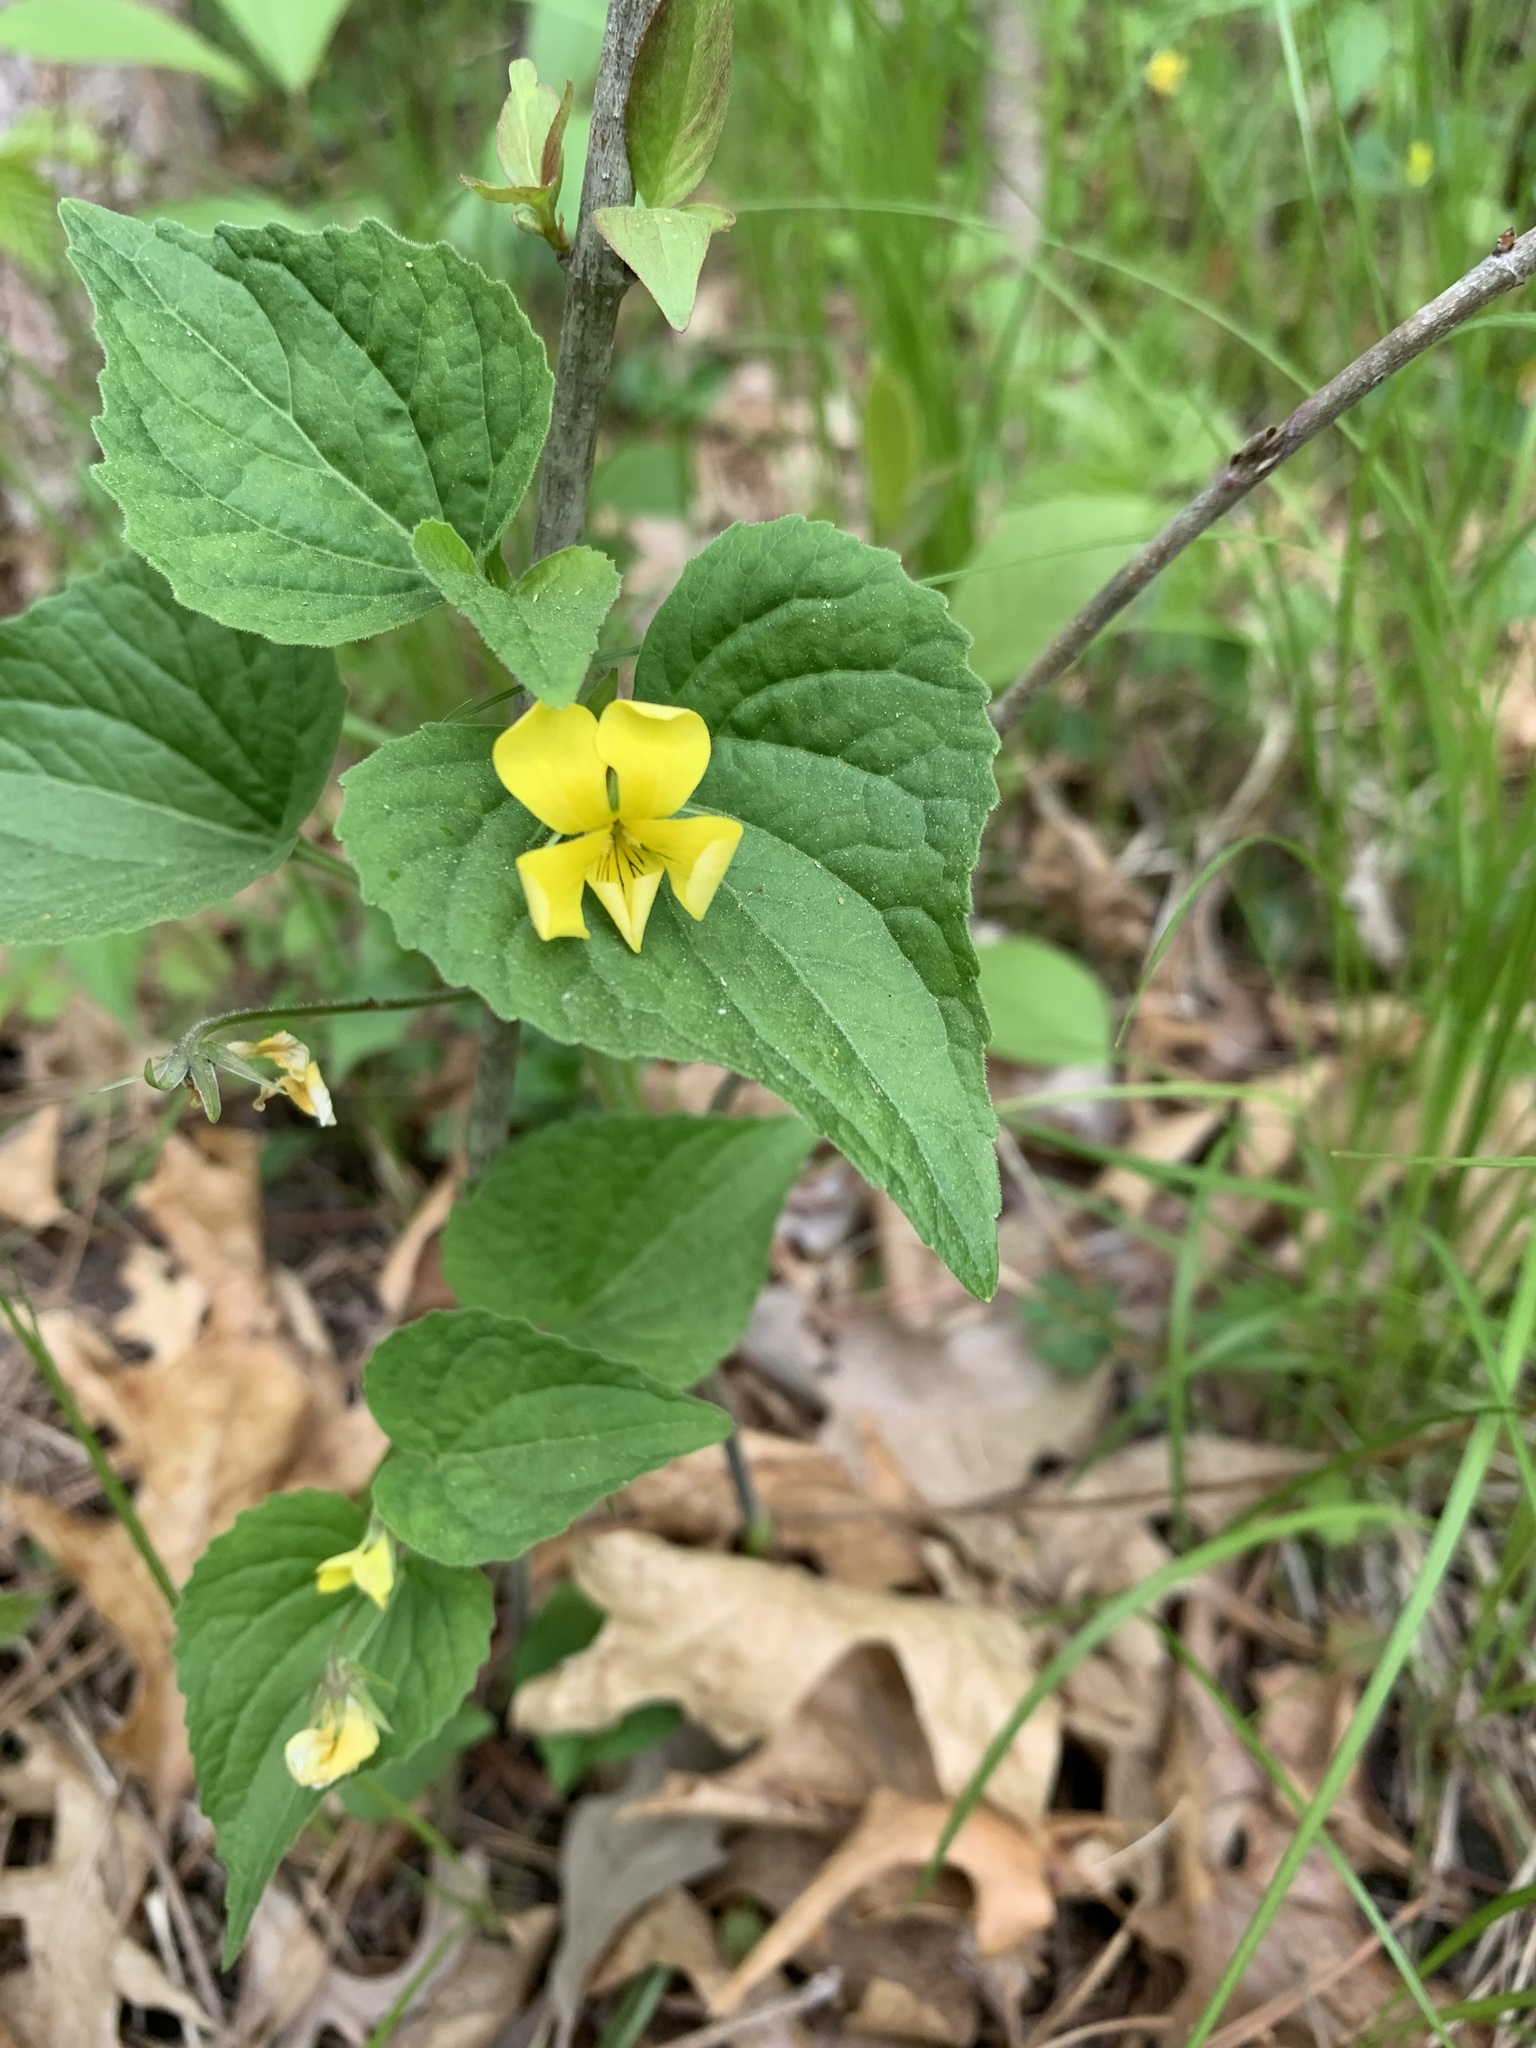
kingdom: Plantae
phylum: Tracheophyta
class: Magnoliopsida
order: Malpighiales
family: Violaceae
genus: Viola
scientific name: Viola eriocarpa
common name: Smooth yellow violet
